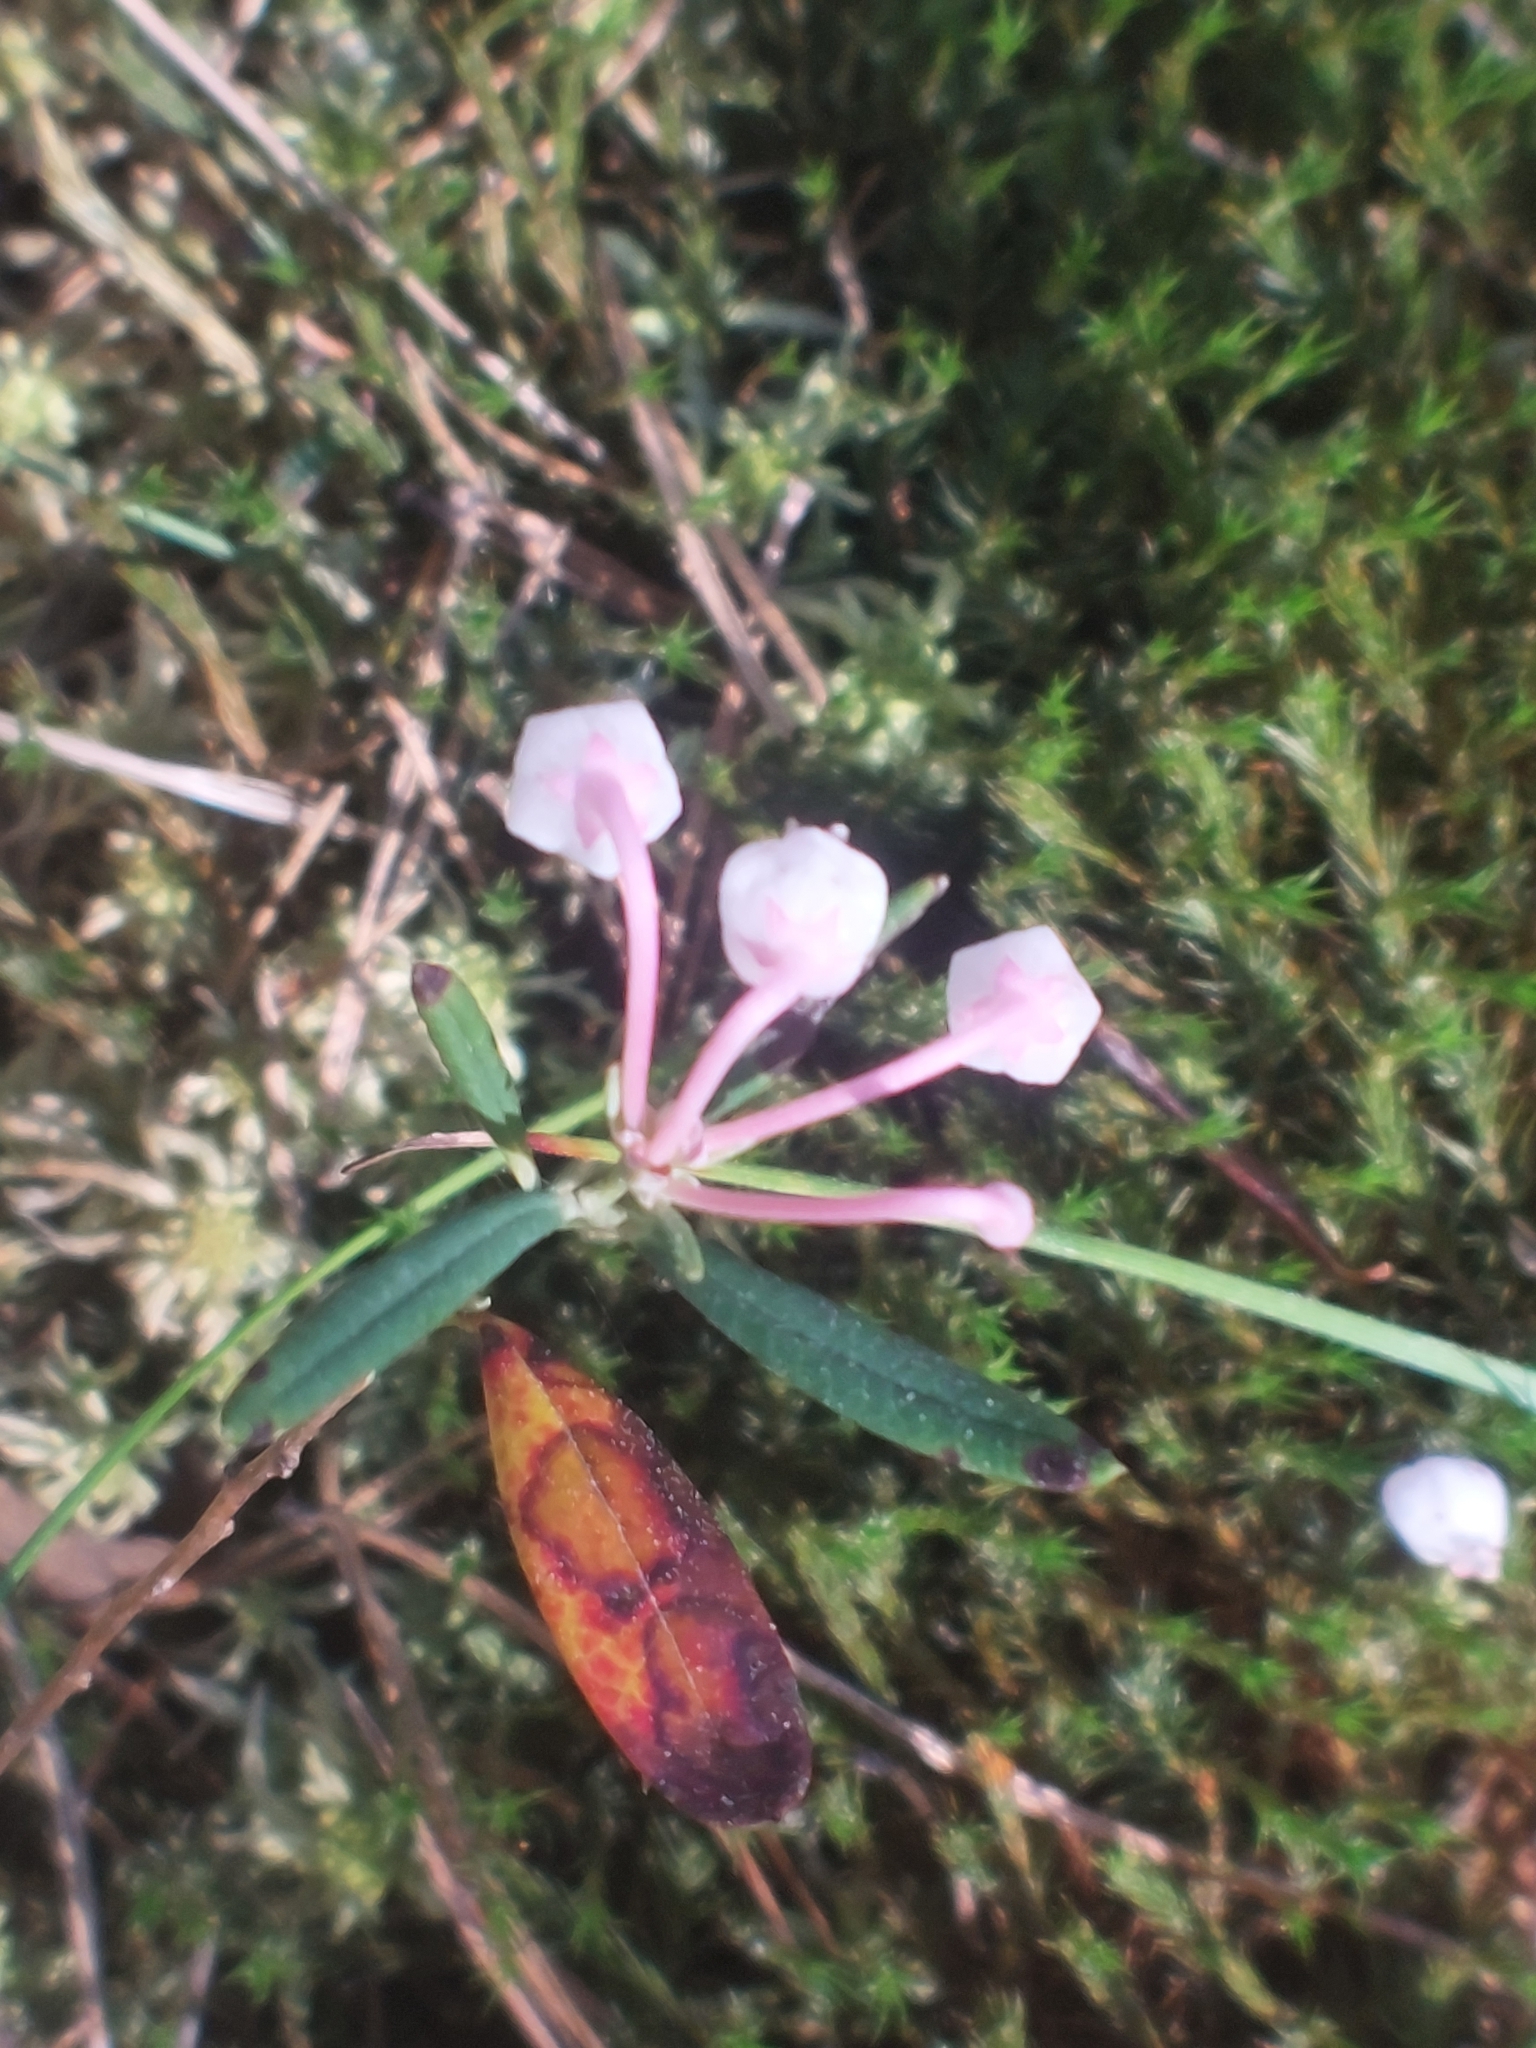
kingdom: Plantae
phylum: Tracheophyta
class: Magnoliopsida
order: Ericales
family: Ericaceae
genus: Andromeda
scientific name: Andromeda polifolia
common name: Bog-rosemary
